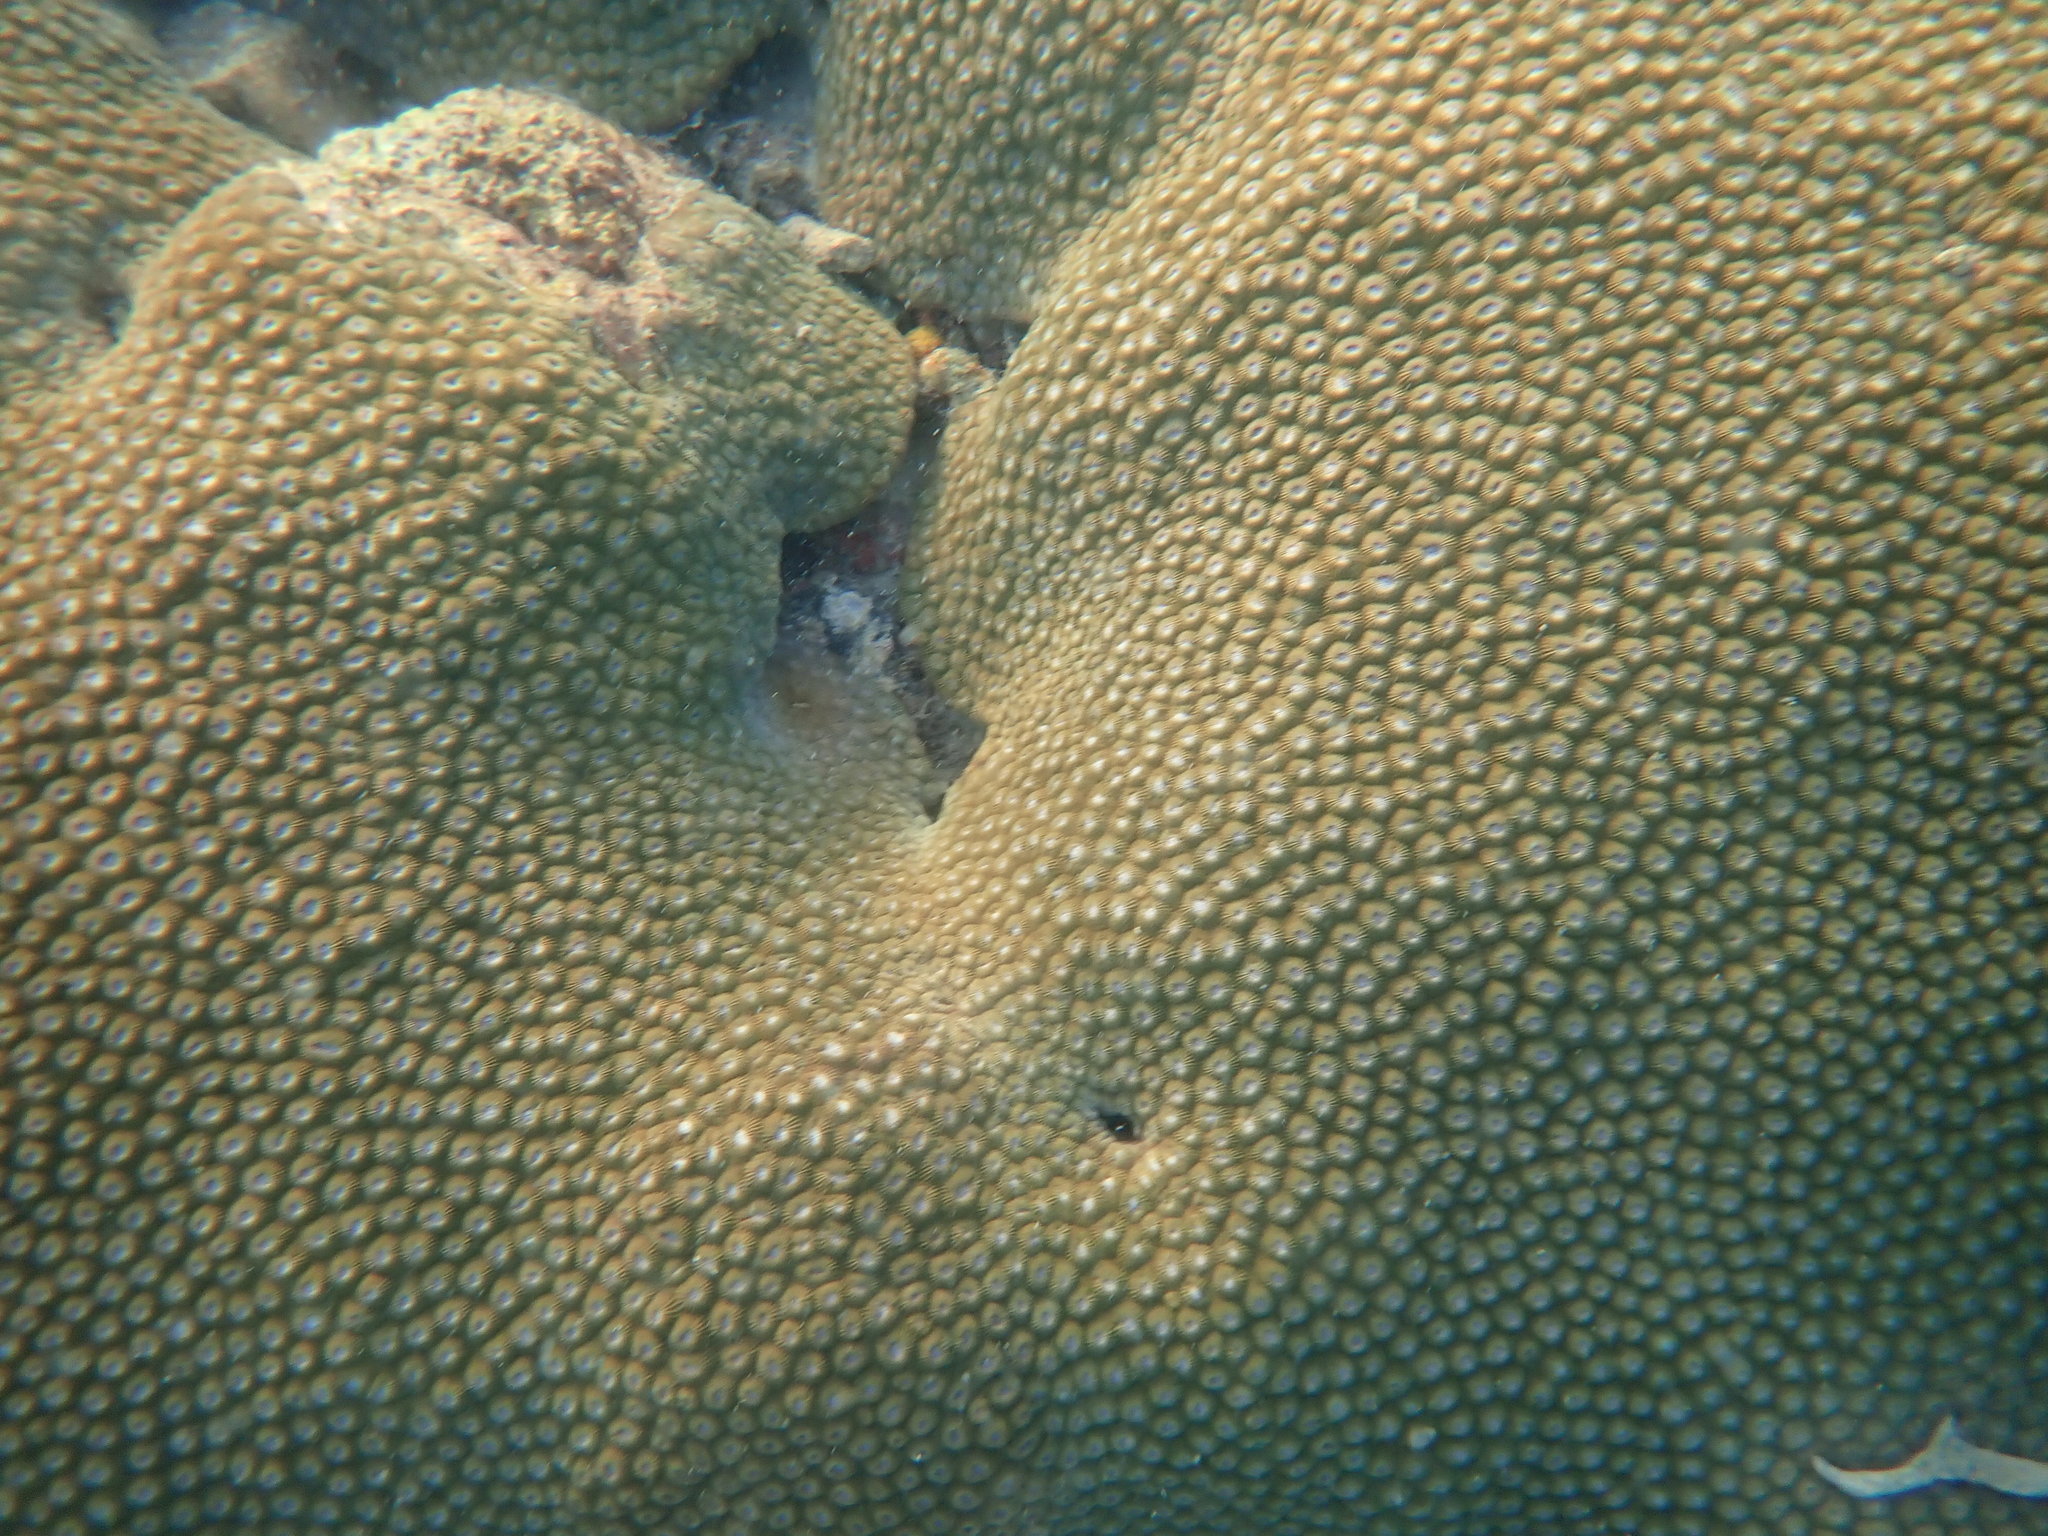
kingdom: Animalia
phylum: Cnidaria
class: Anthozoa
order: Scleractinia
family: Diploastraeidae
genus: Diploastrea
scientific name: Diploastrea heliopora
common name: Double-star coral
